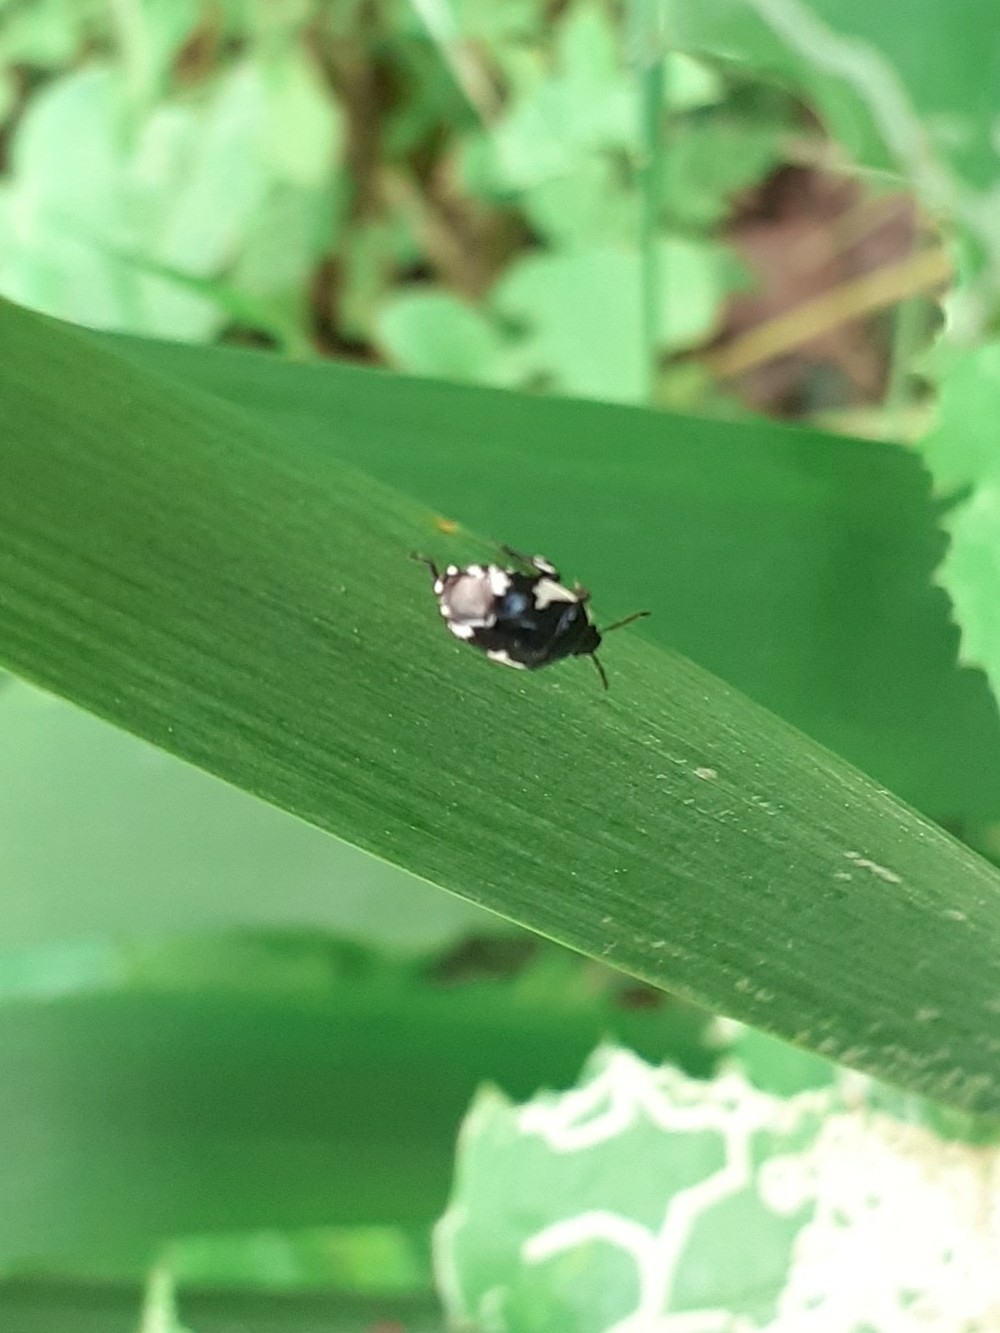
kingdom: Animalia
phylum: Arthropoda
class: Insecta
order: Hemiptera
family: Cydnidae
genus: Tritomegas
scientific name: Tritomegas sexmaculatus
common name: Rambur's pied shieldbug
